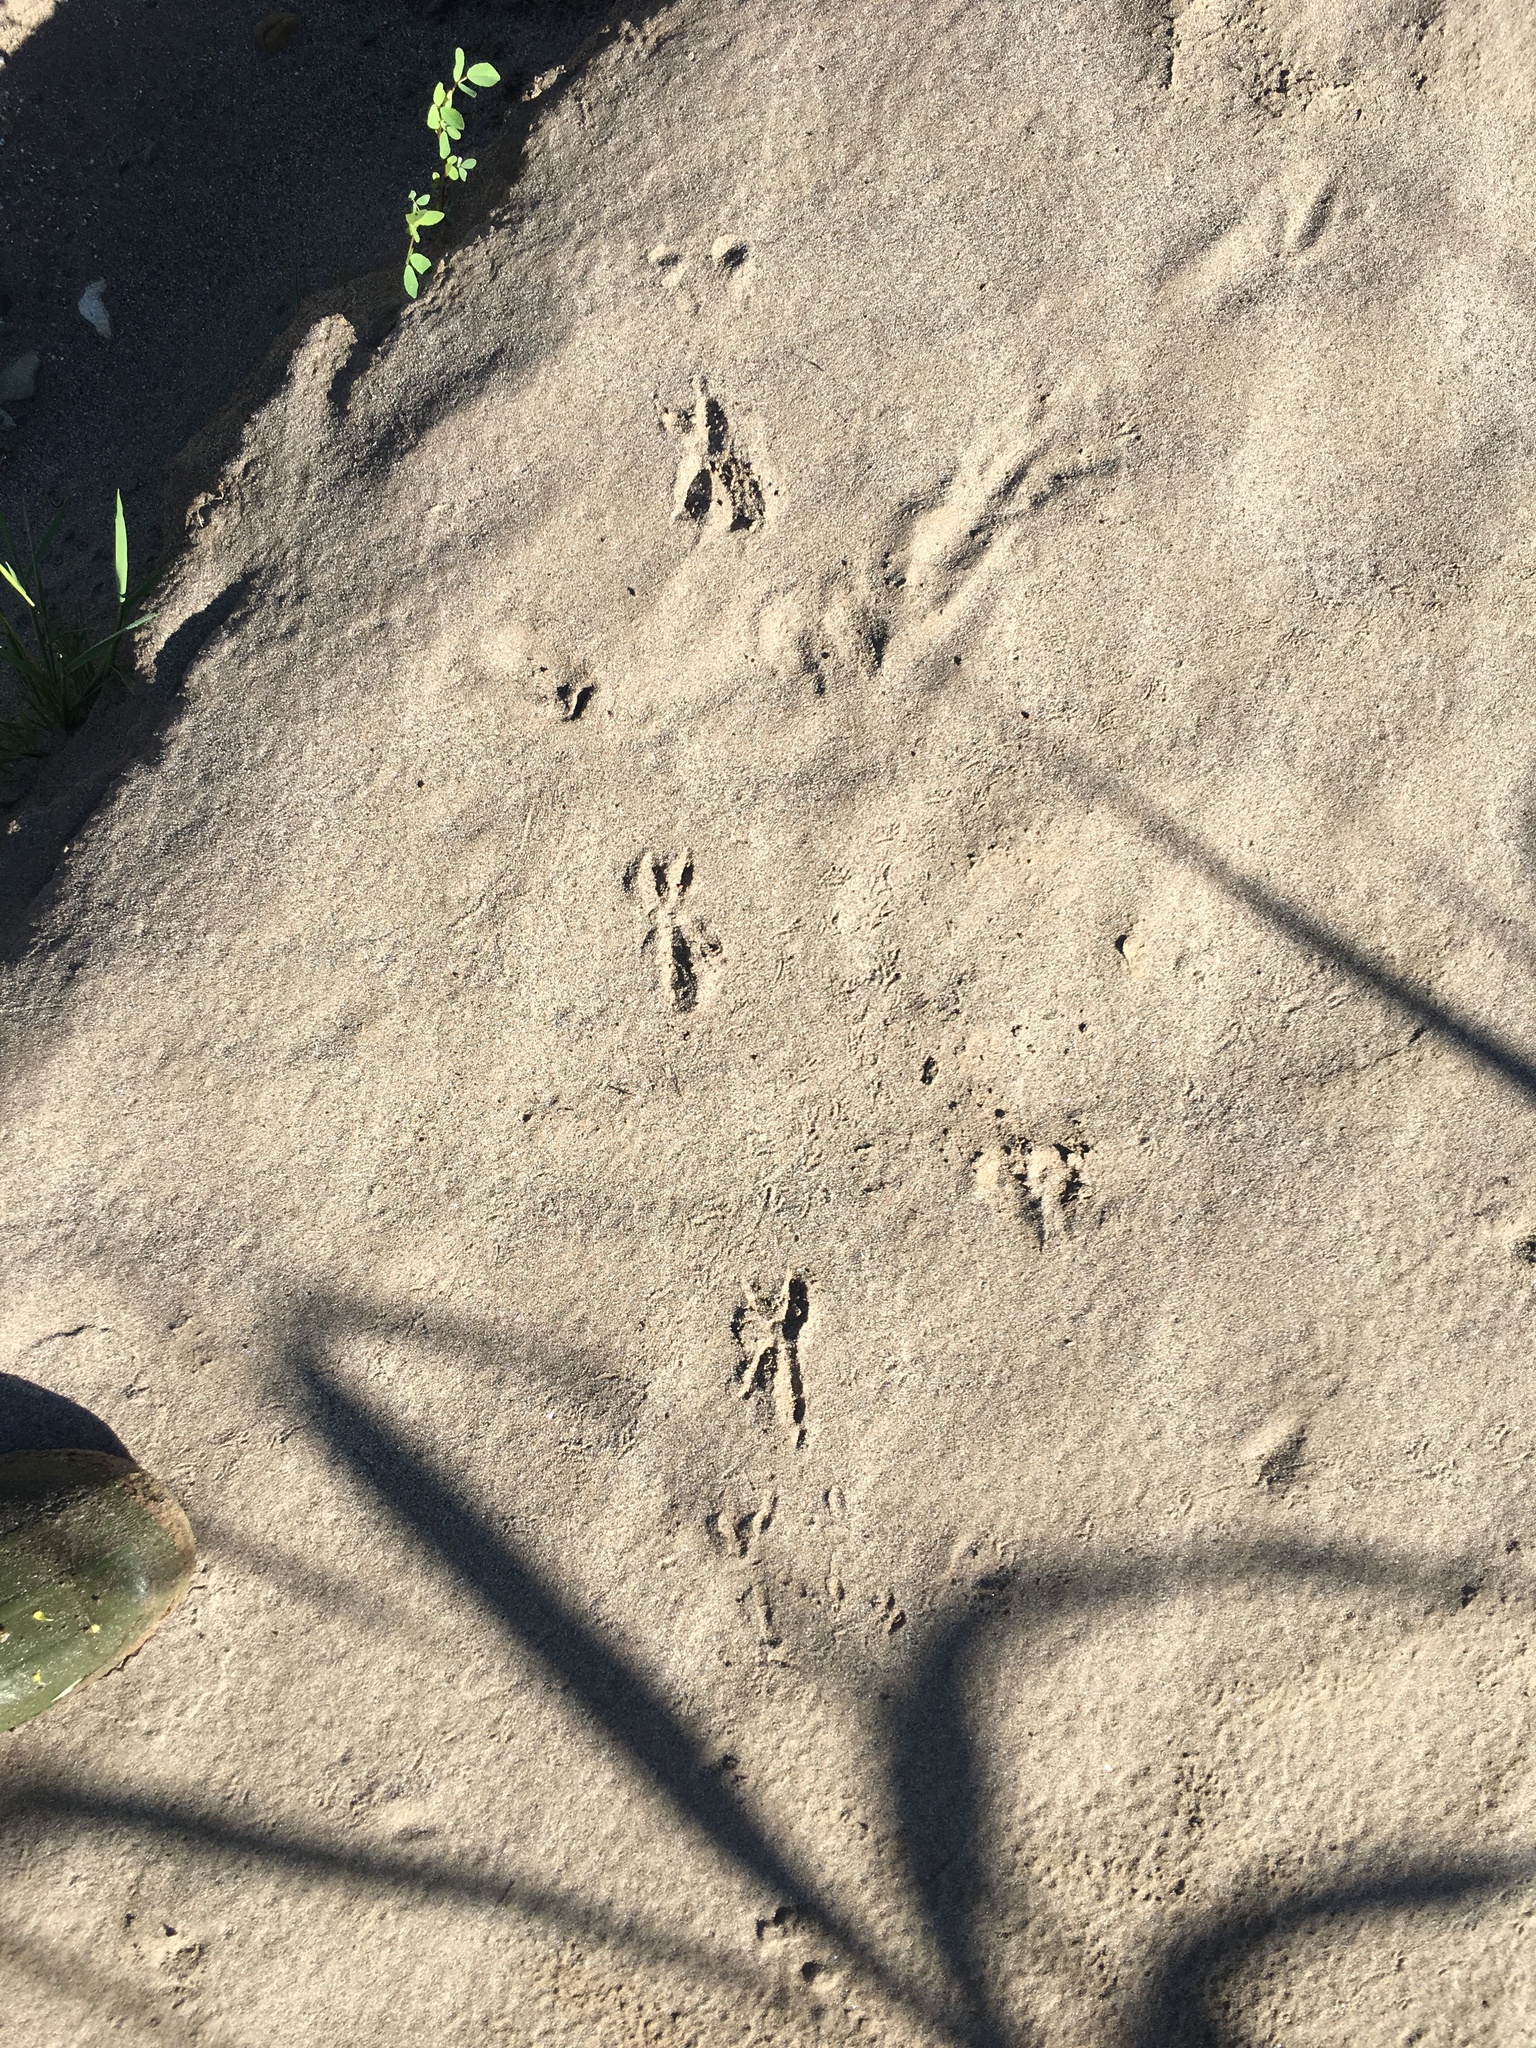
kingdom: Animalia
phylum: Chordata
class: Aves
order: Cuculiformes
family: Cuculidae
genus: Geococcyx
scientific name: Geococcyx californianus
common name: Greater roadrunner
